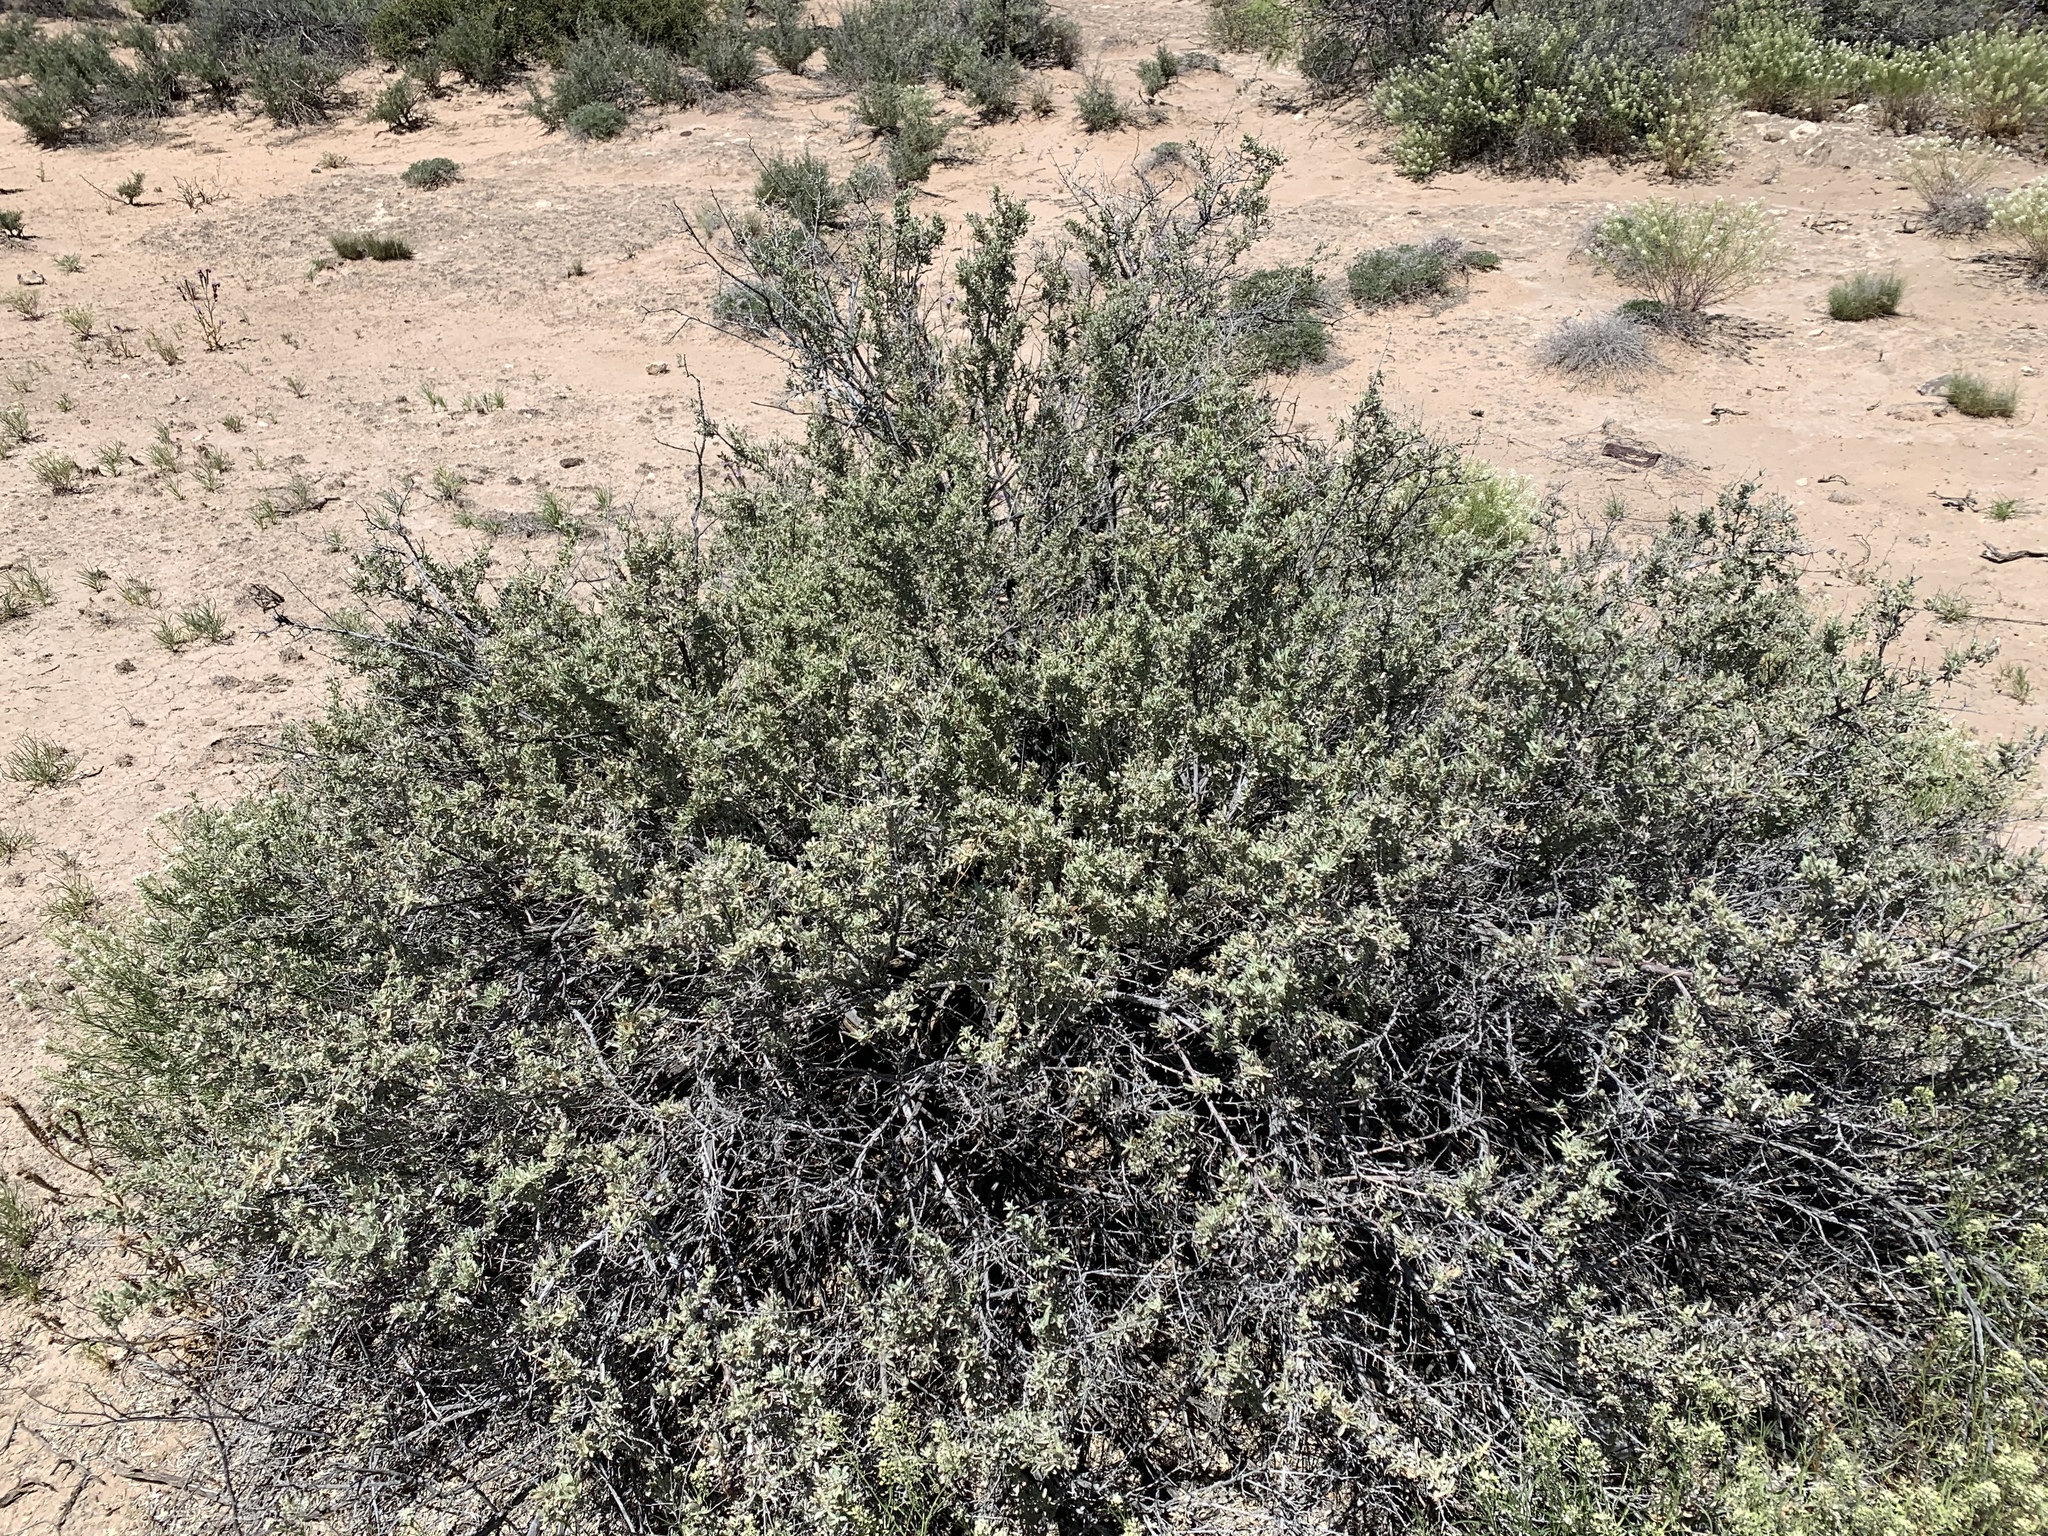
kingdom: Plantae
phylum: Tracheophyta
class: Magnoliopsida
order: Caryophyllales
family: Amaranthaceae
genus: Atriplex
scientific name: Atriplex canescens
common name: Four-wing saltbush
